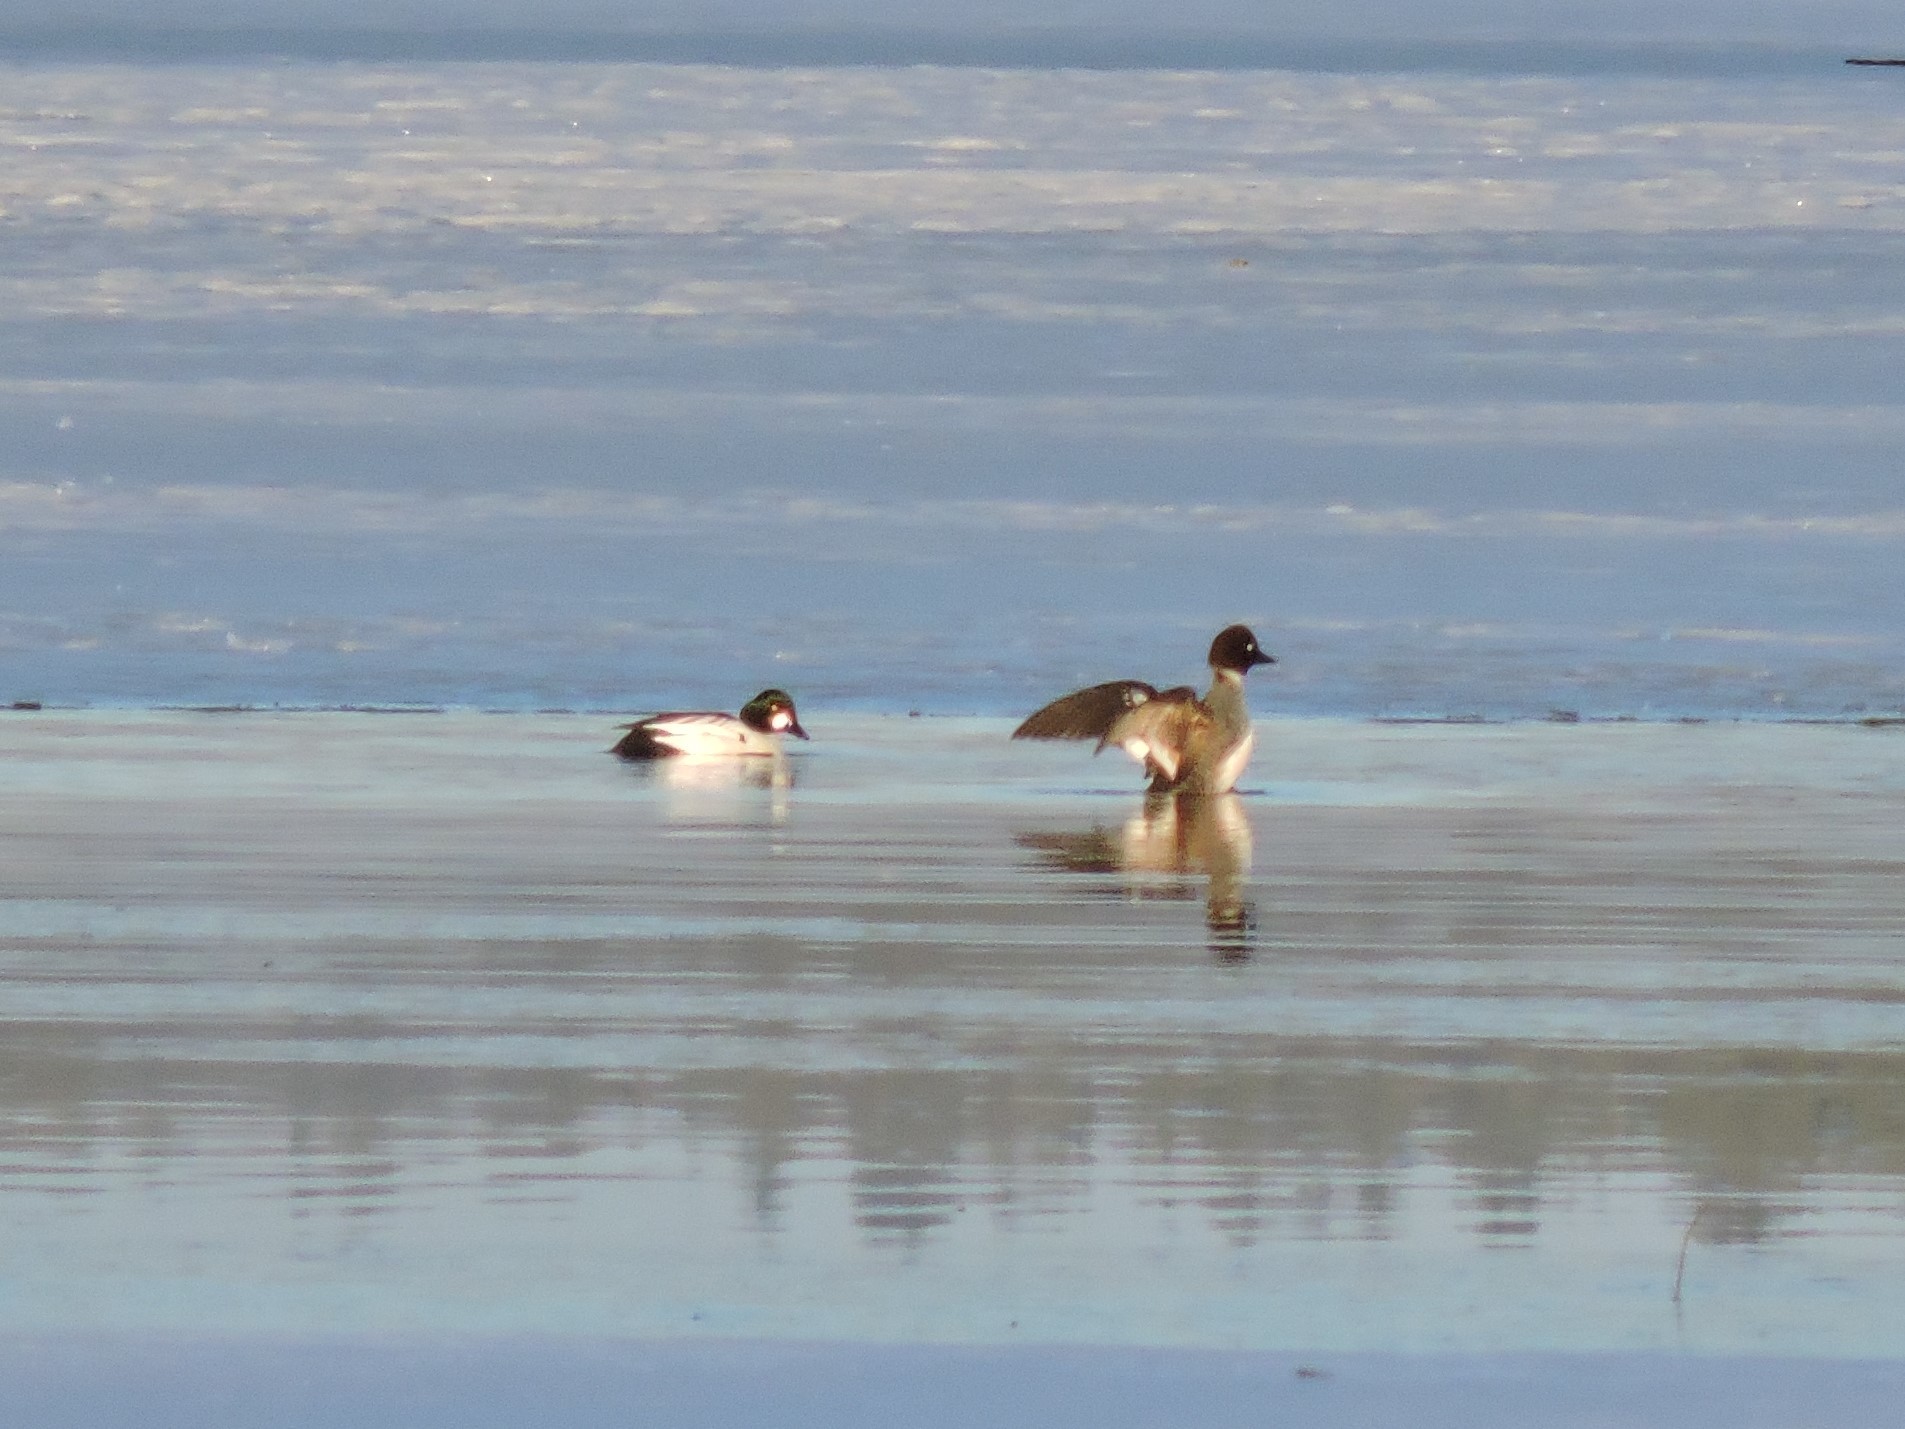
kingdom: Animalia
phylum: Chordata
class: Aves
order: Anseriformes
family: Anatidae
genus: Bucephala
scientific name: Bucephala clangula
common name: Common goldeneye
